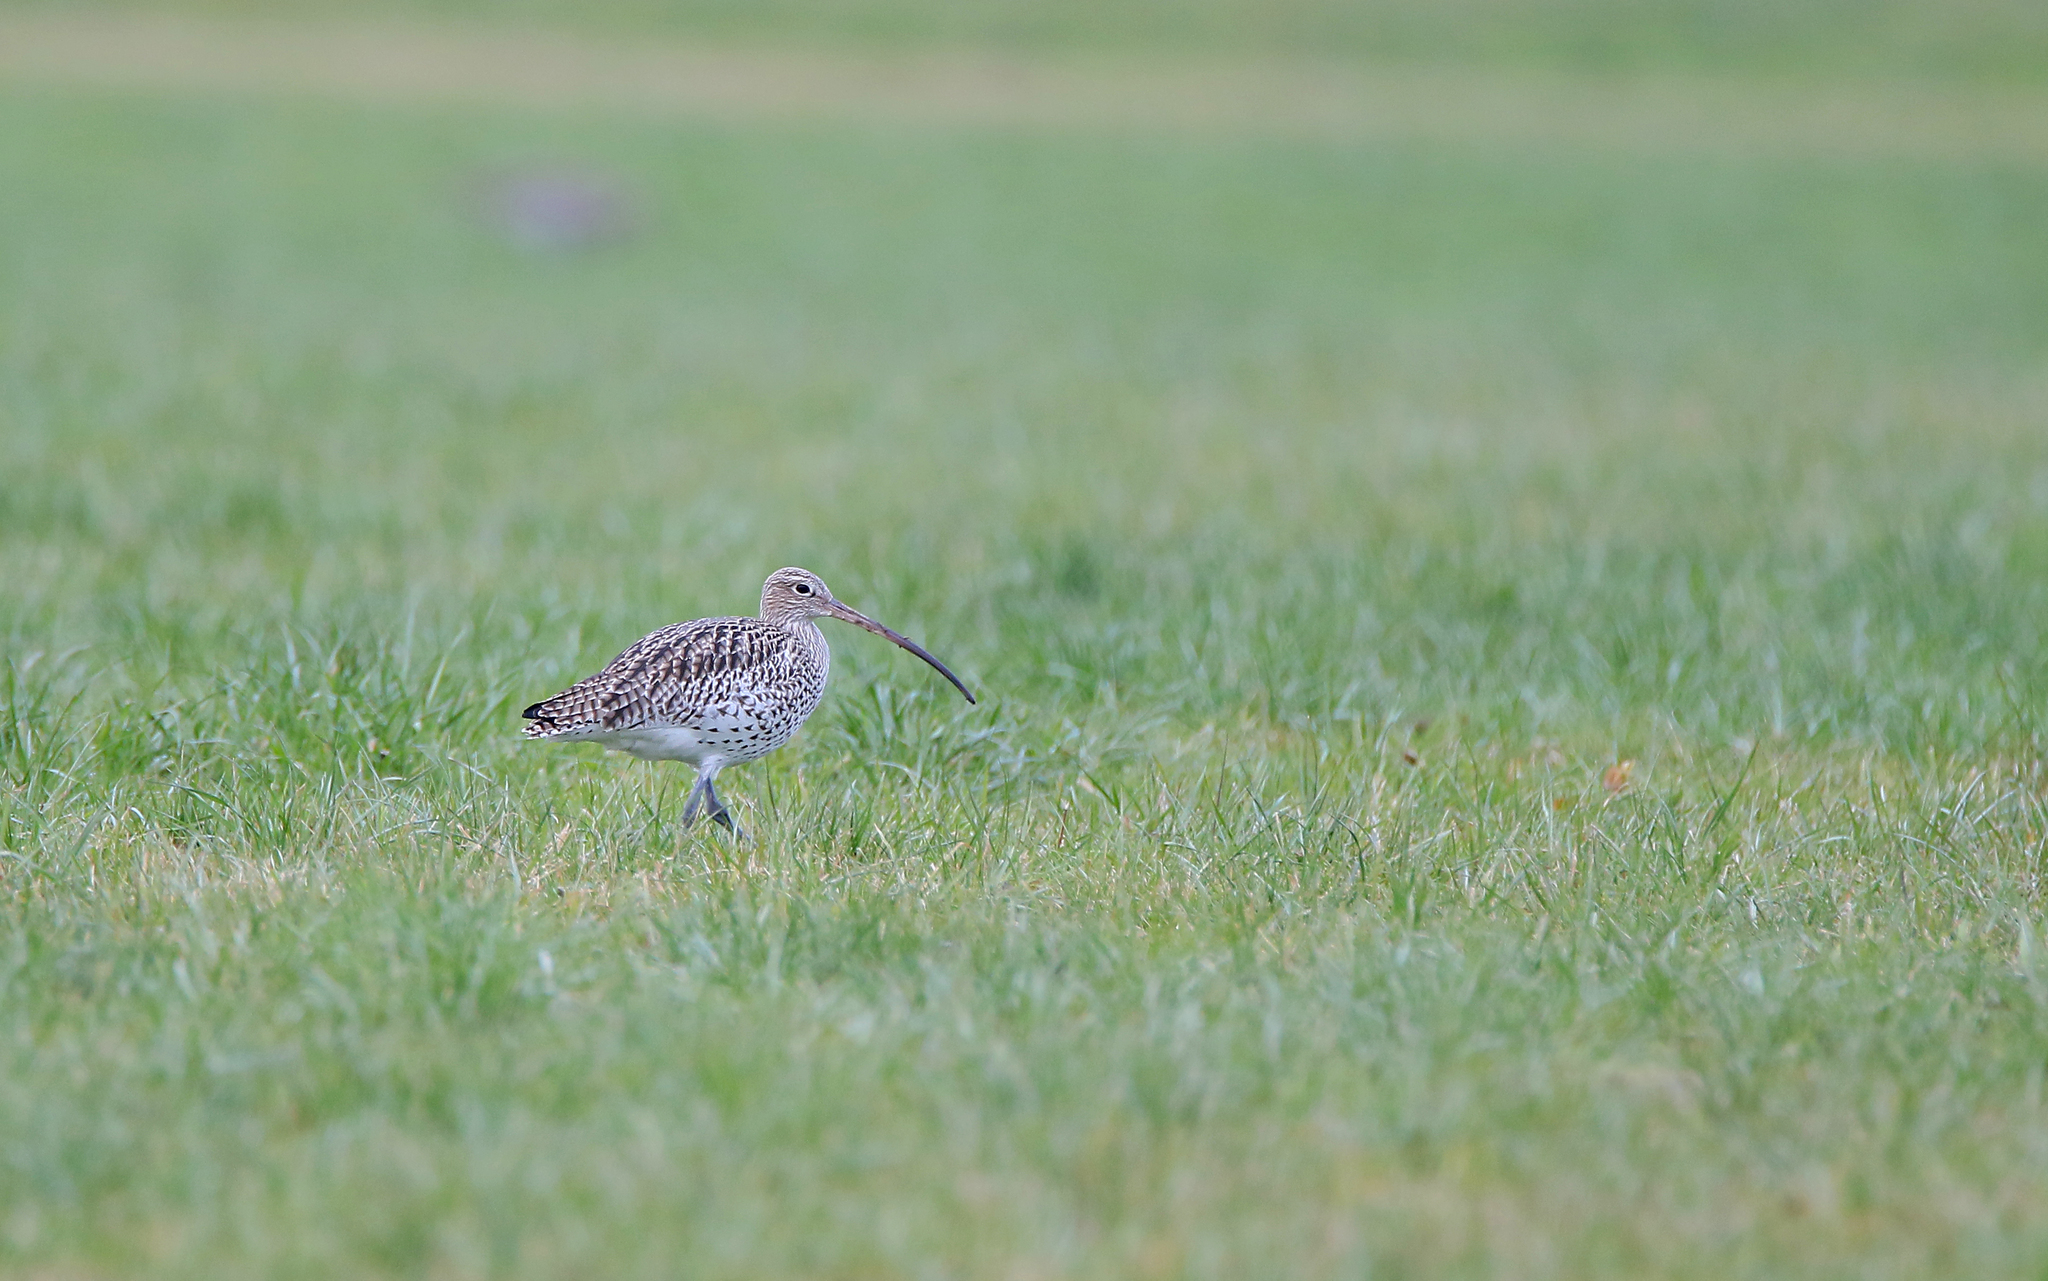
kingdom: Animalia
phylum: Chordata
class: Aves
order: Charadriiformes
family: Scolopacidae
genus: Numenius
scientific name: Numenius arquata
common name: Eurasian curlew
